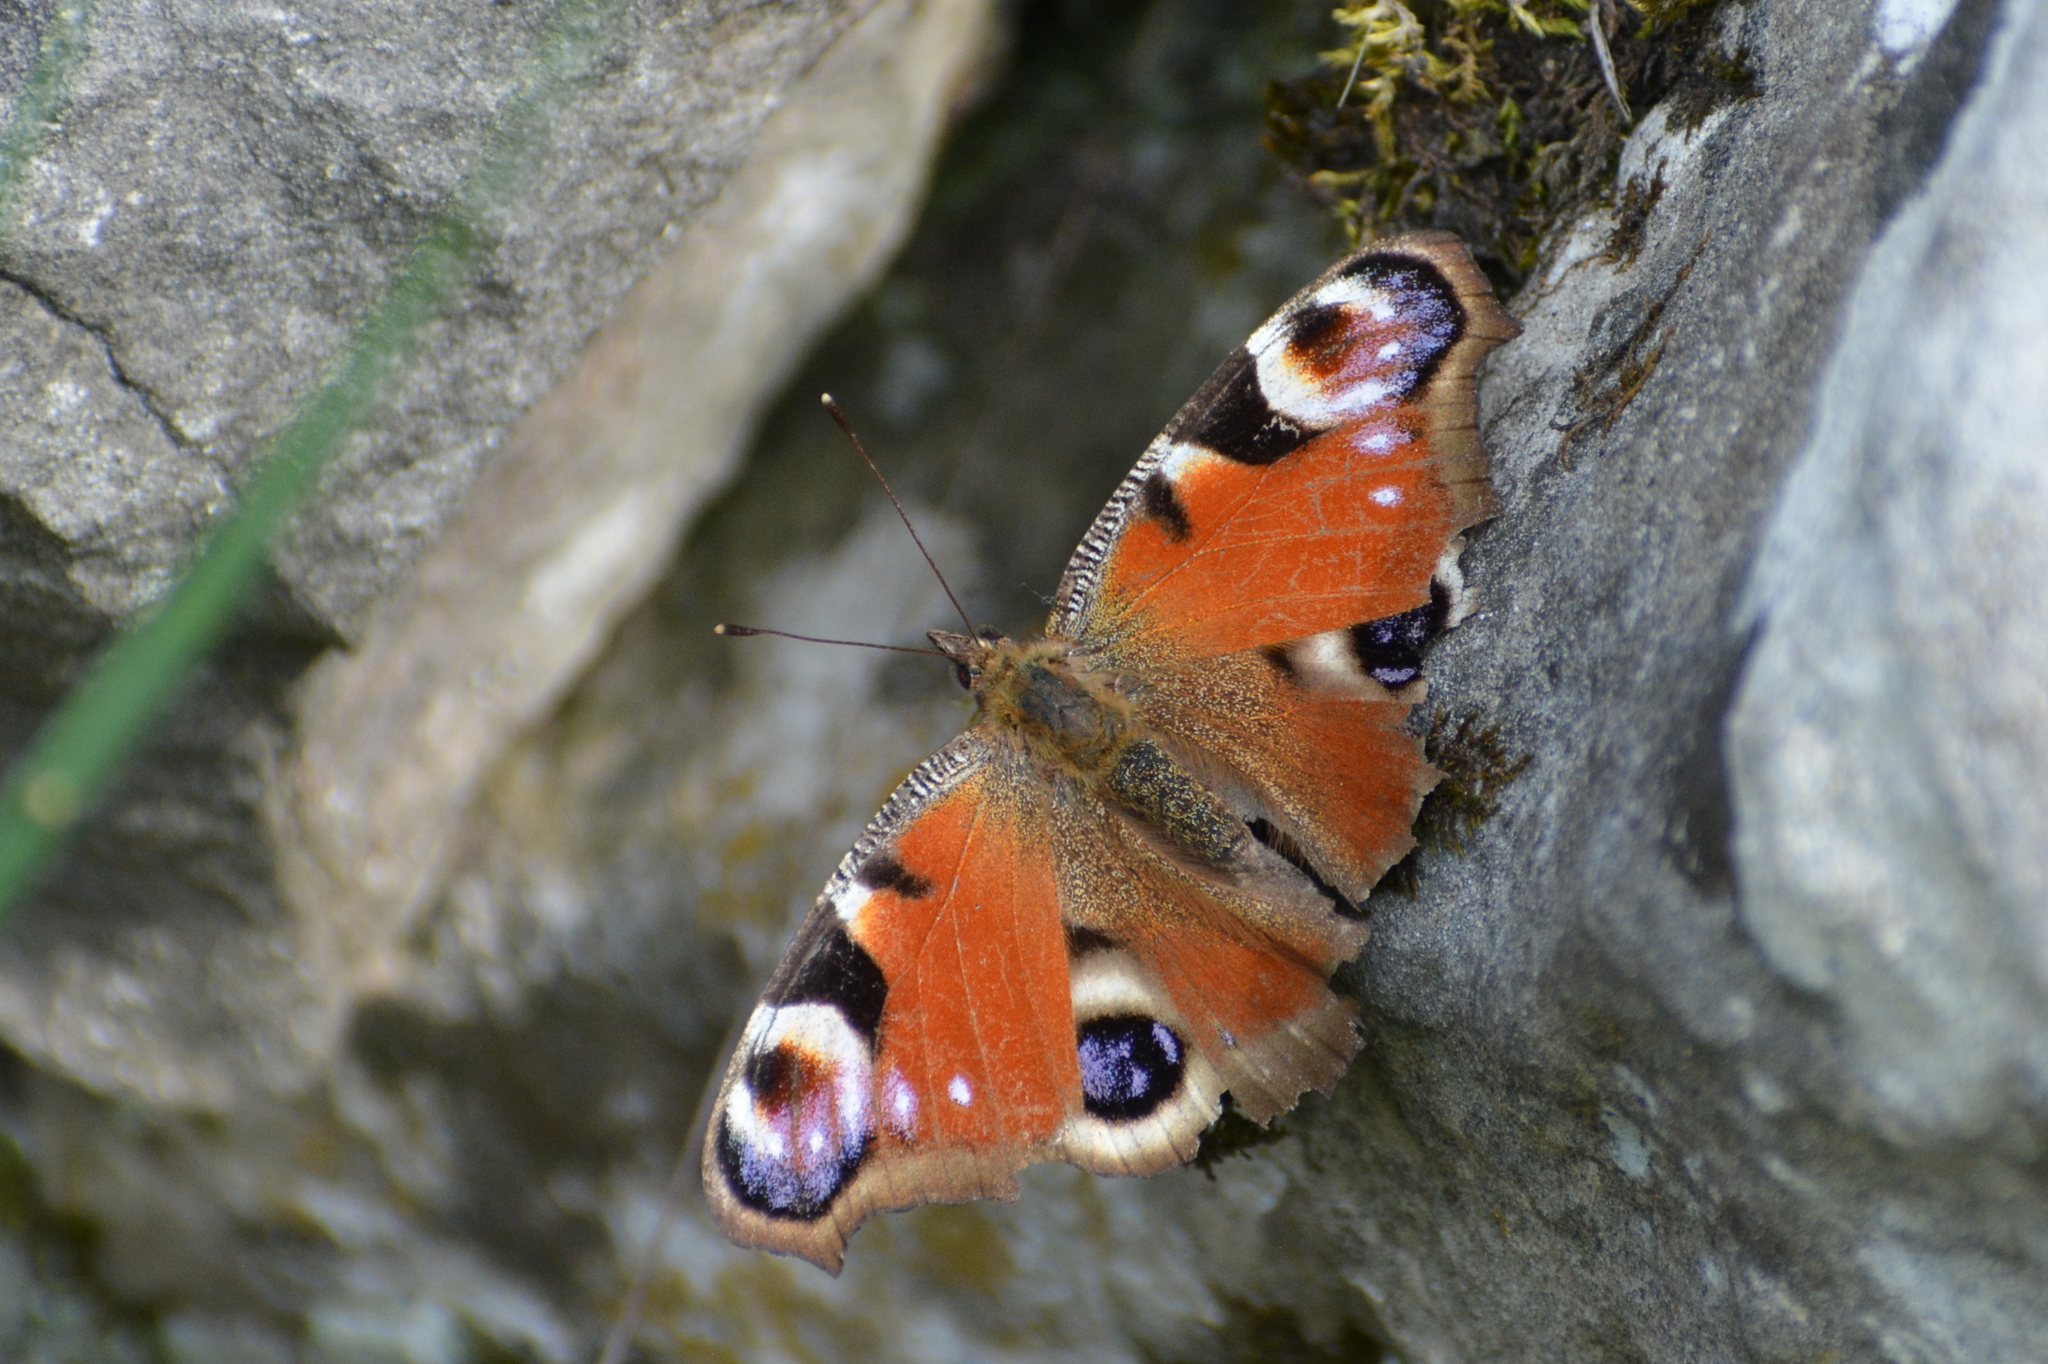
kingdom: Animalia
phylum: Arthropoda
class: Insecta
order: Lepidoptera
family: Nymphalidae
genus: Aglais
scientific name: Aglais io
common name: Peacock
